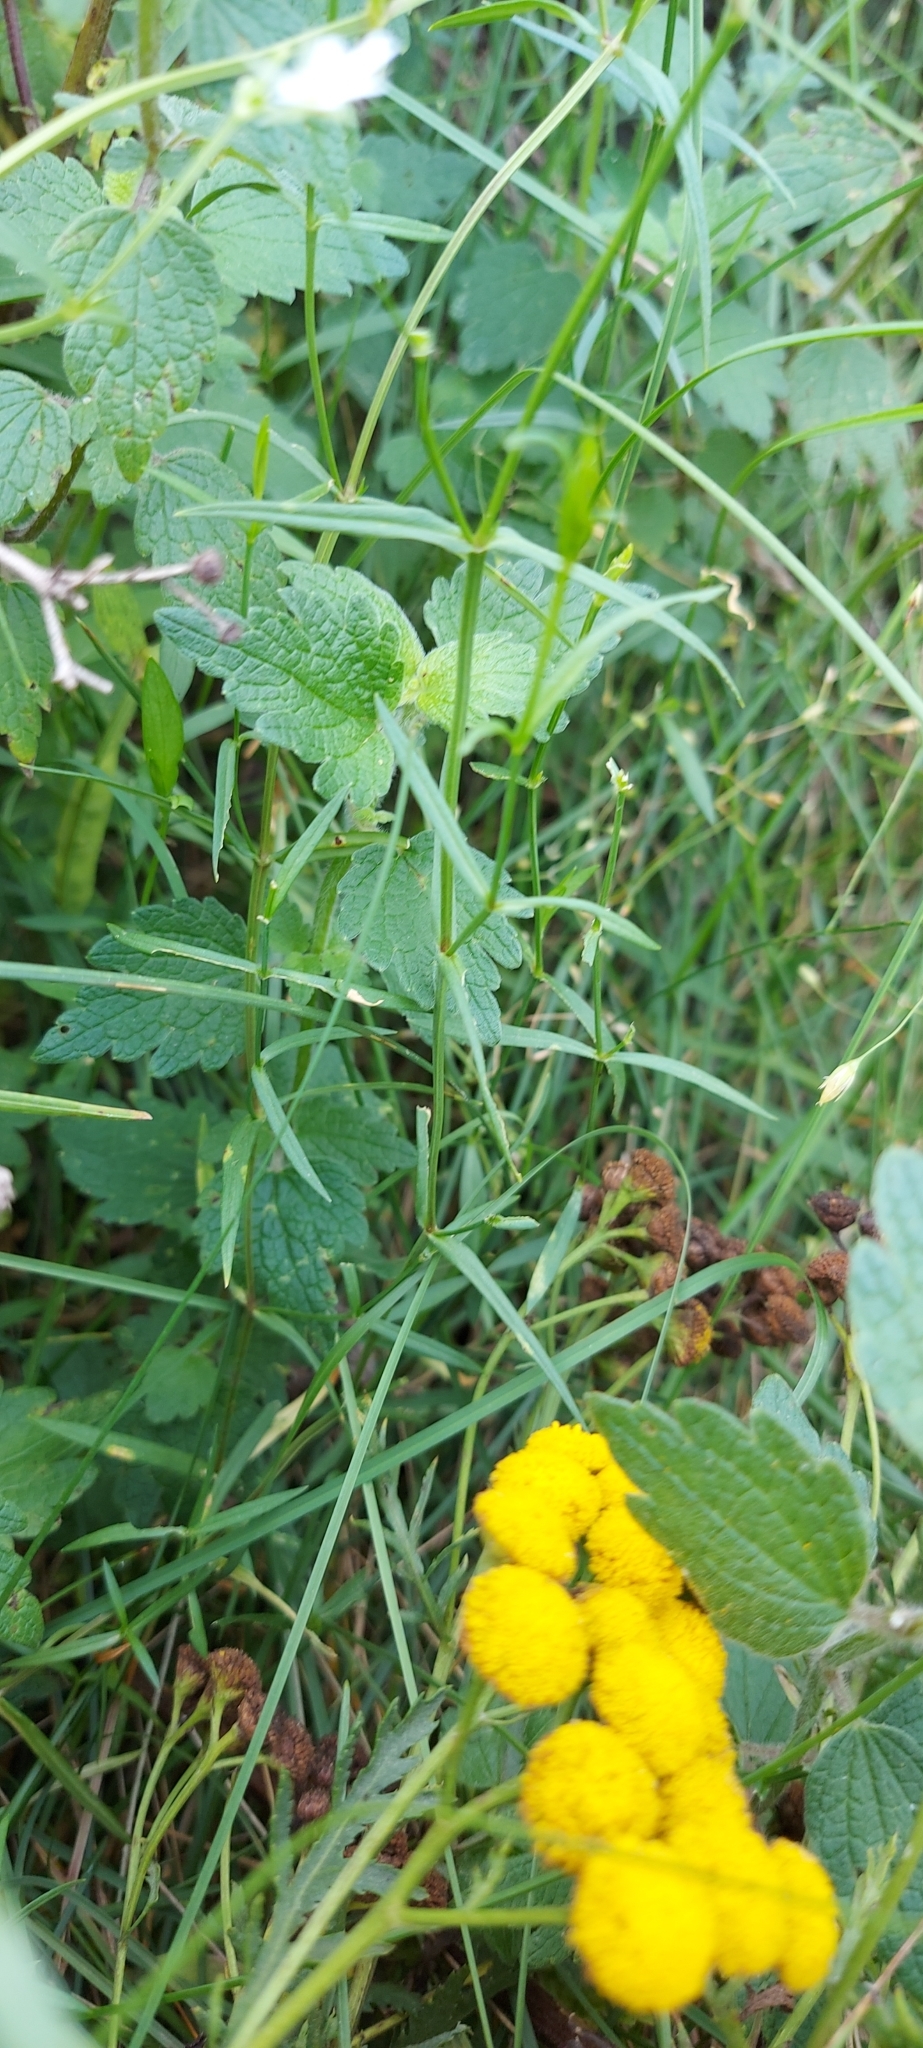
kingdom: Plantae
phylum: Tracheophyta
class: Magnoliopsida
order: Caryophyllales
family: Caryophyllaceae
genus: Stellaria
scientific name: Stellaria graminea
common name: Grass-like starwort
